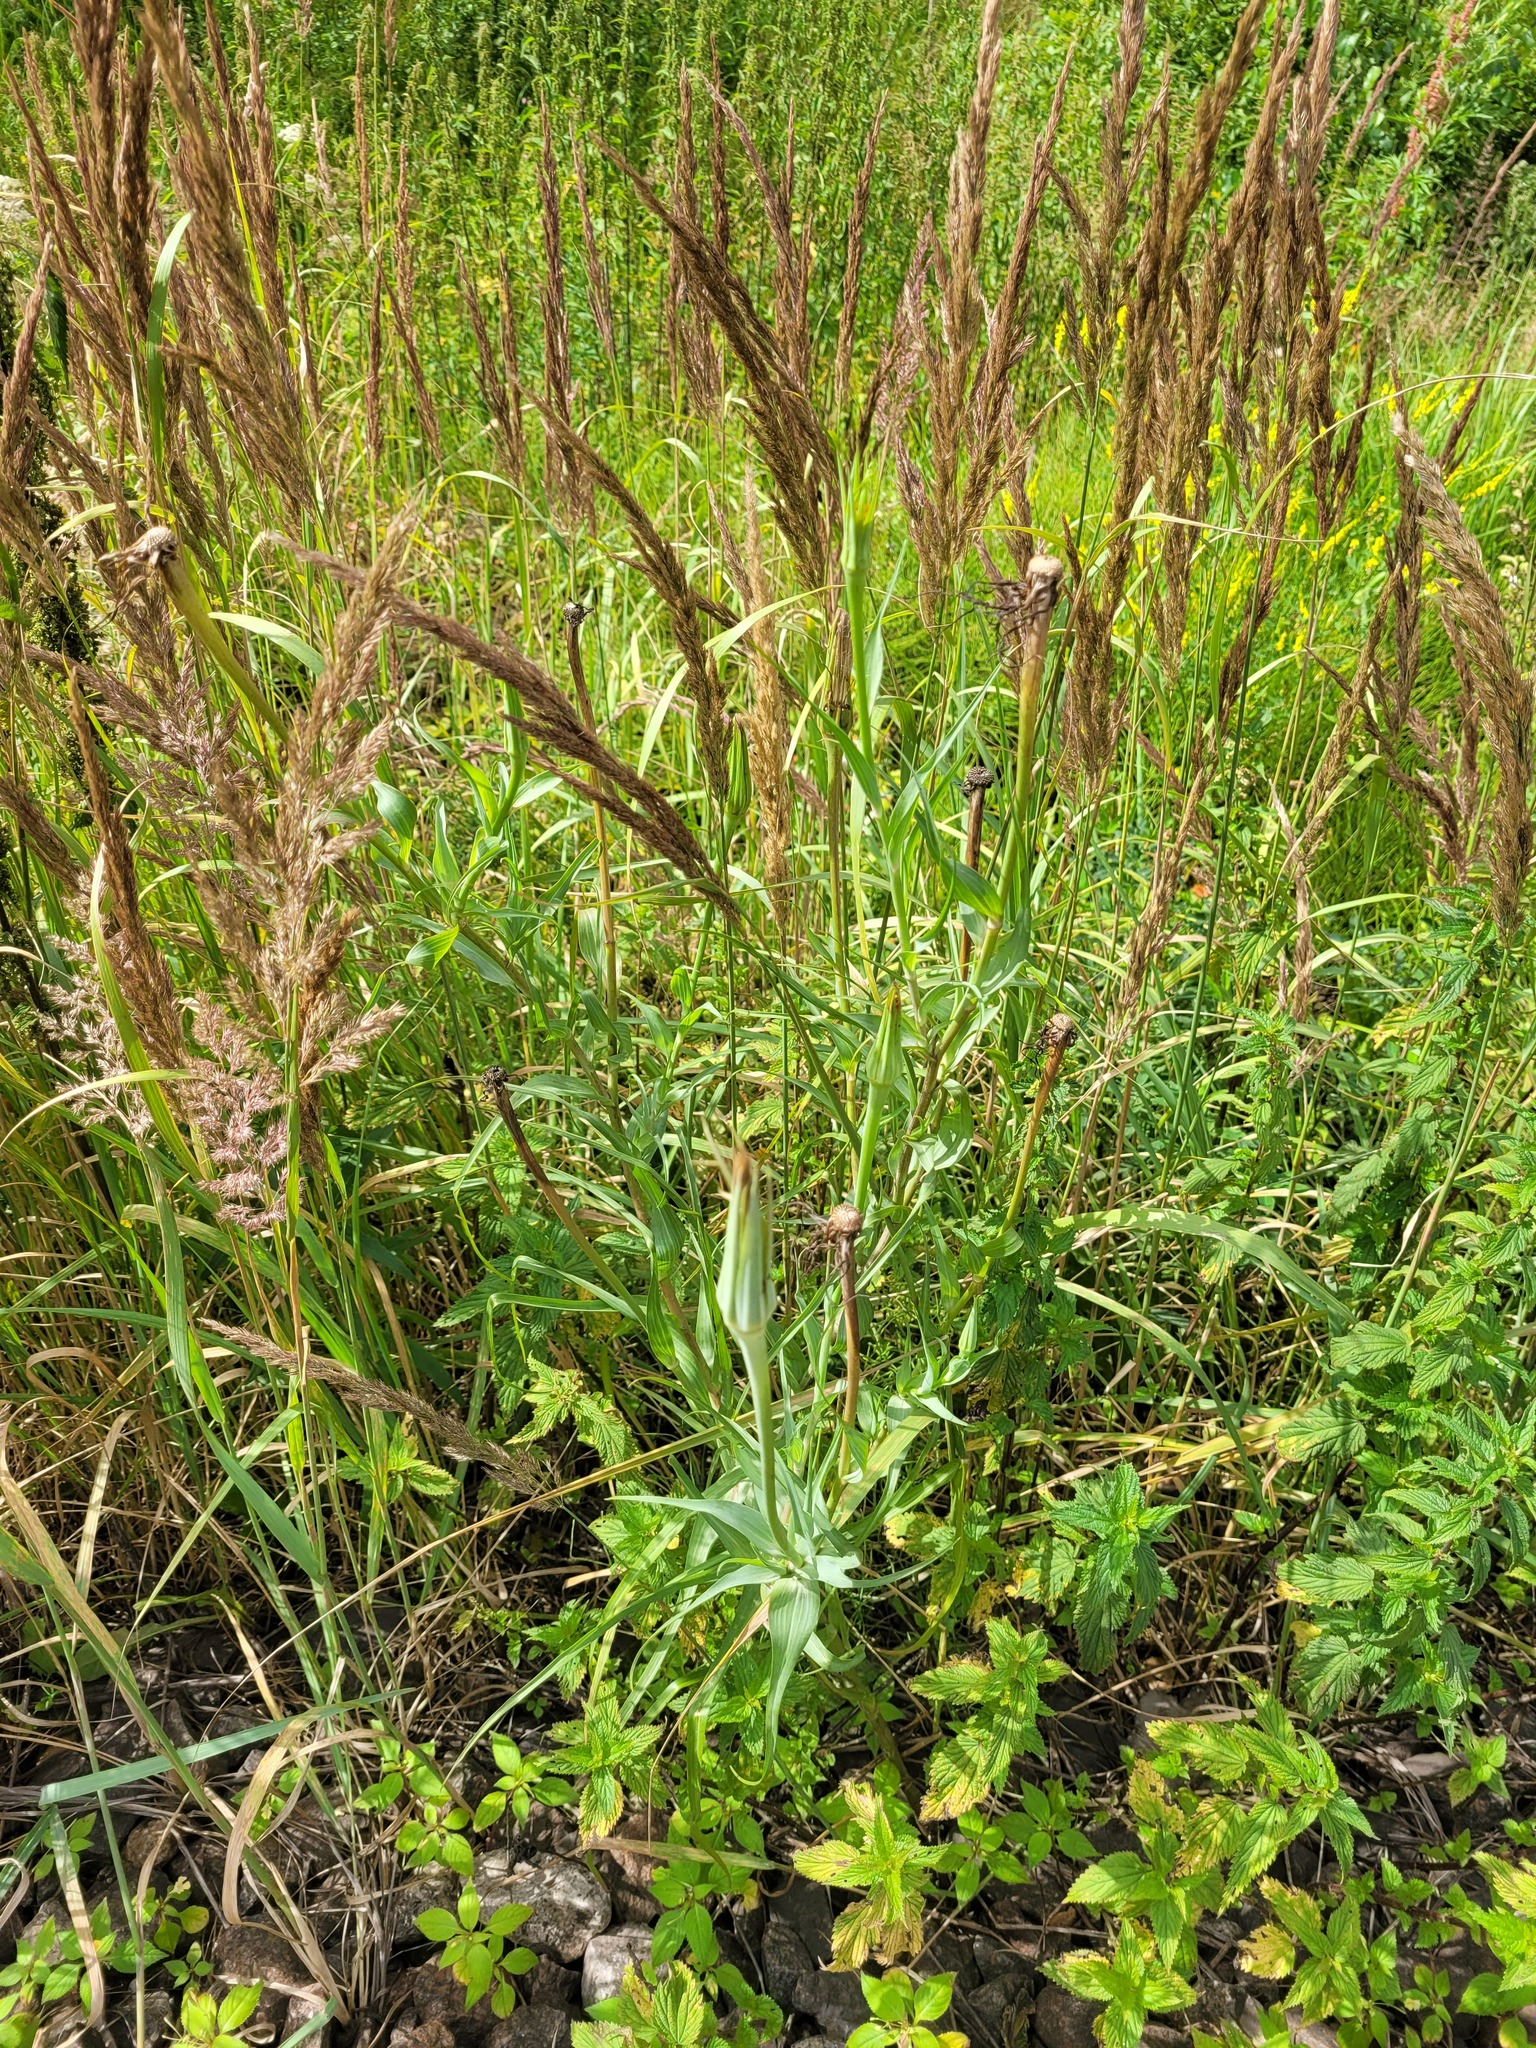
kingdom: Plantae
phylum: Tracheophyta
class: Magnoliopsida
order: Asterales
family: Asteraceae
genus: Tragopogon
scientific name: Tragopogon dubius
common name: Yellow salsify
